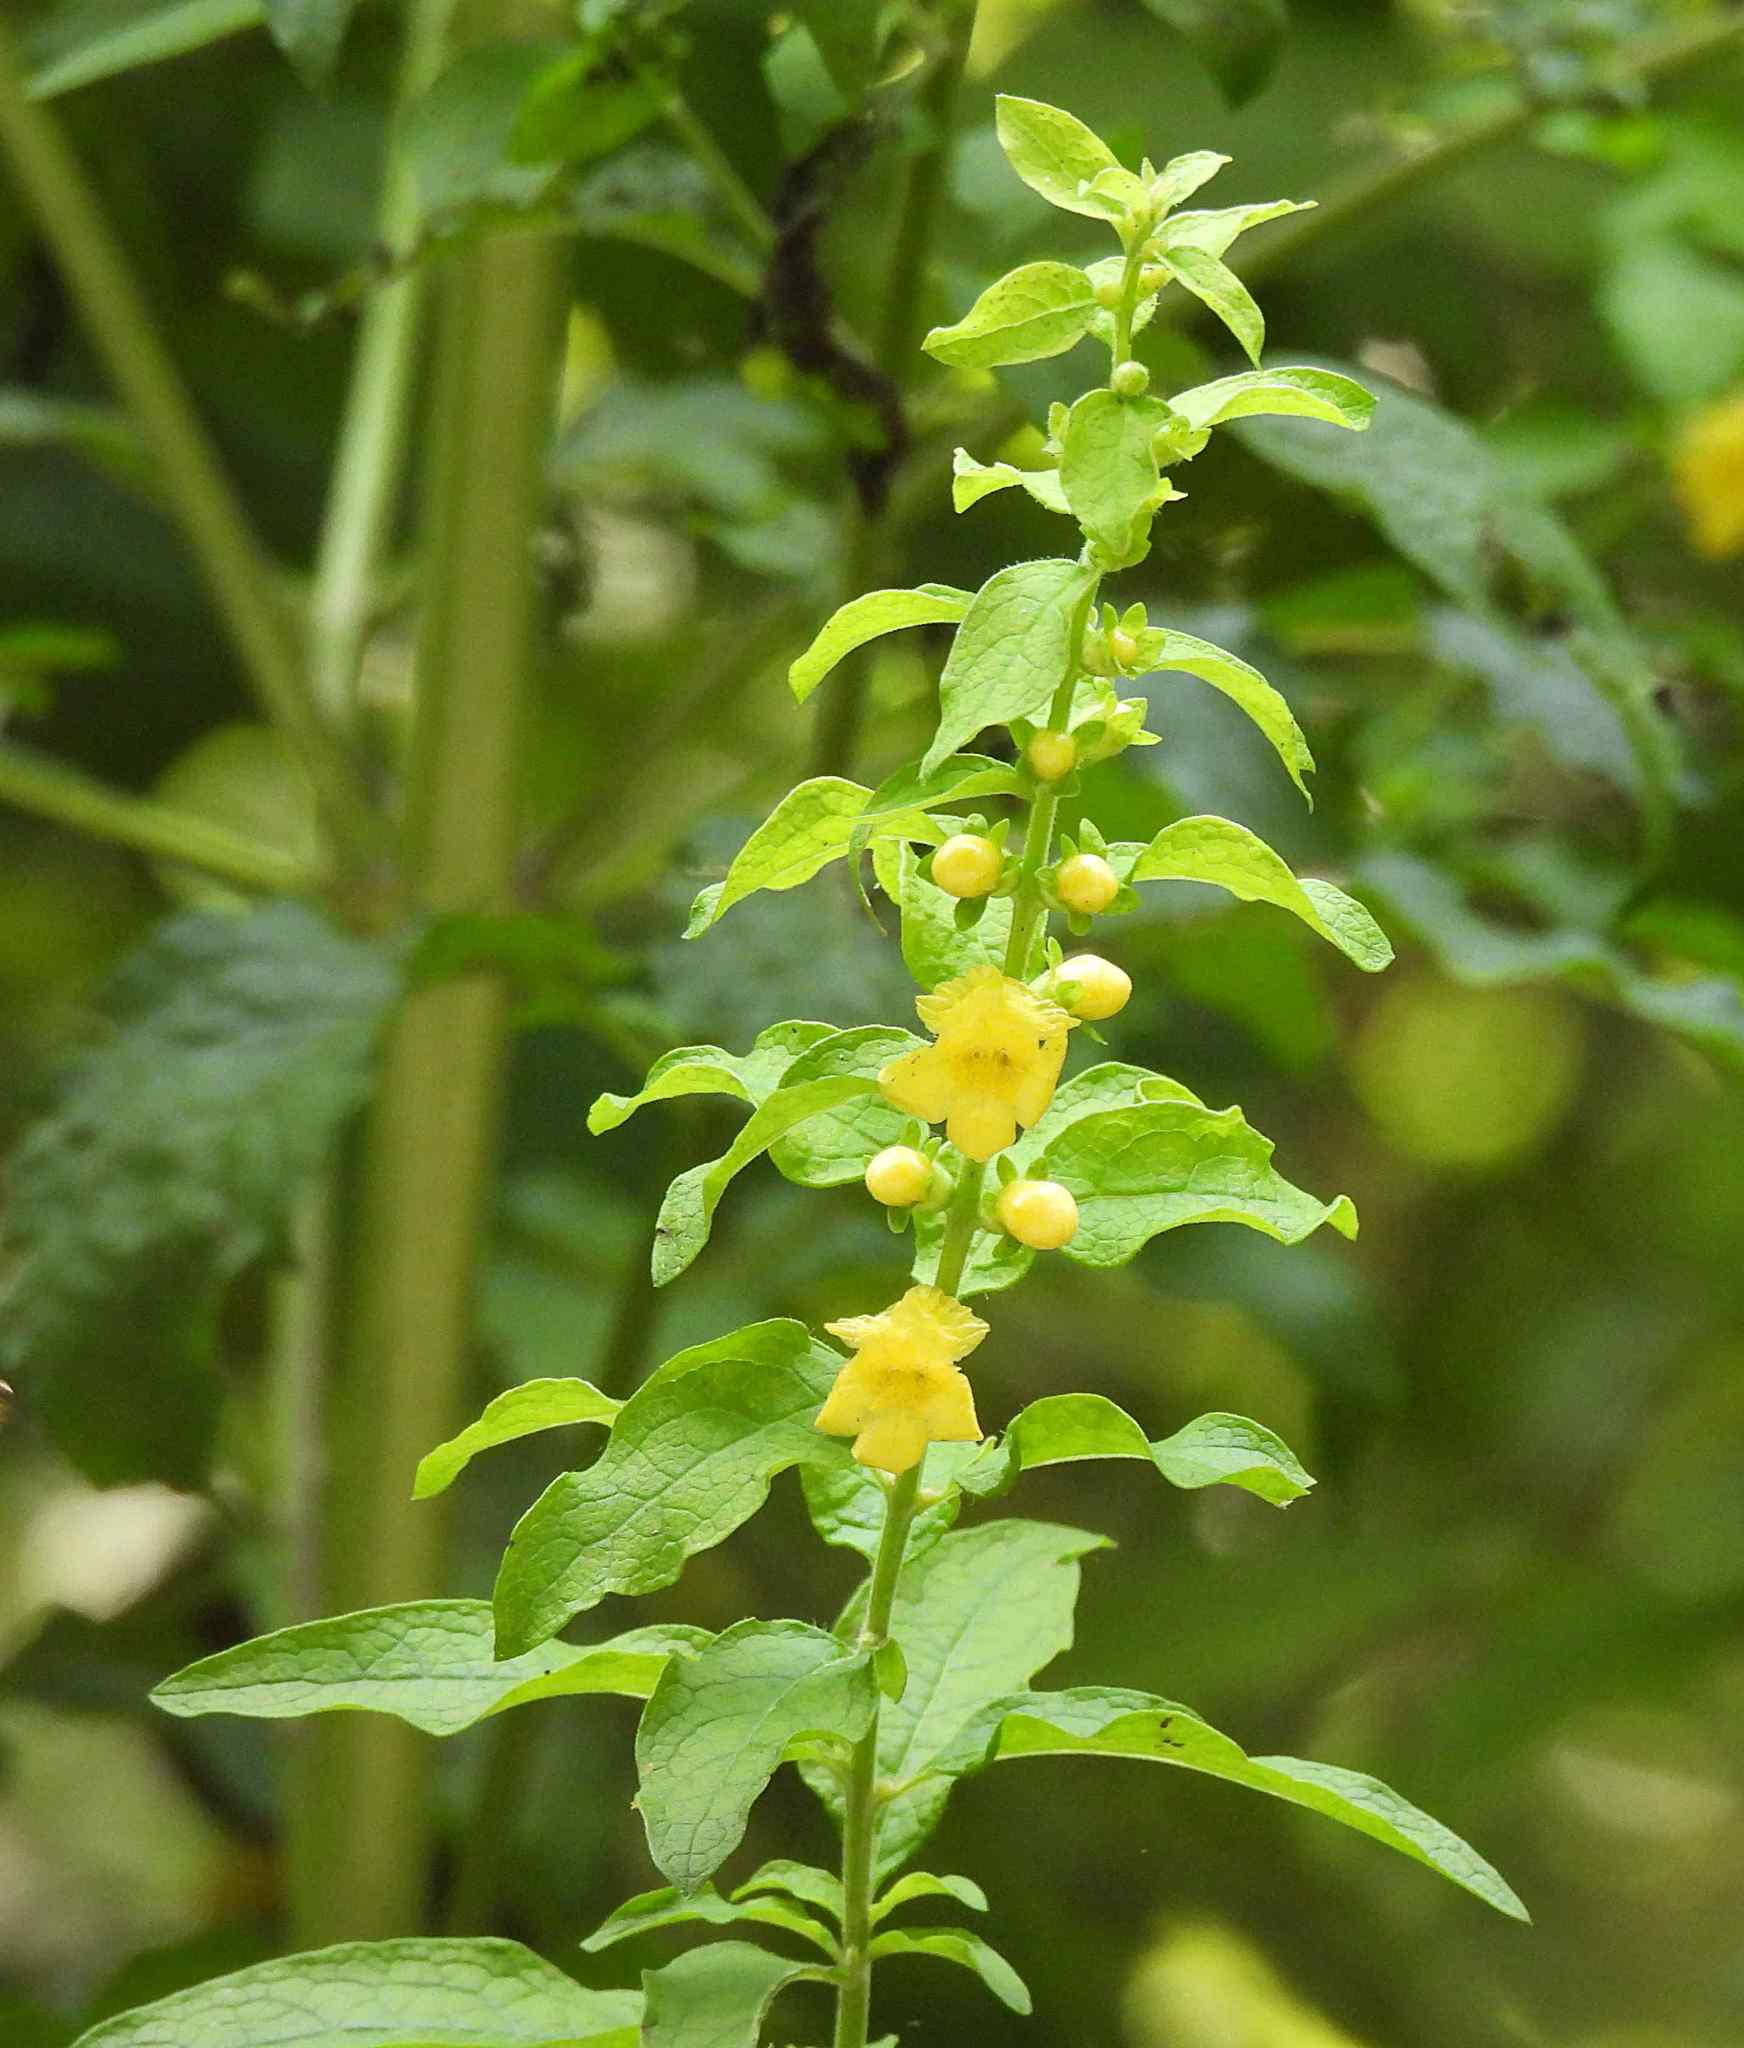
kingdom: Plantae
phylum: Tracheophyta
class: Magnoliopsida
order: Lamiales
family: Orobanchaceae
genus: Dasistoma
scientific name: Dasistoma macrophyllum
